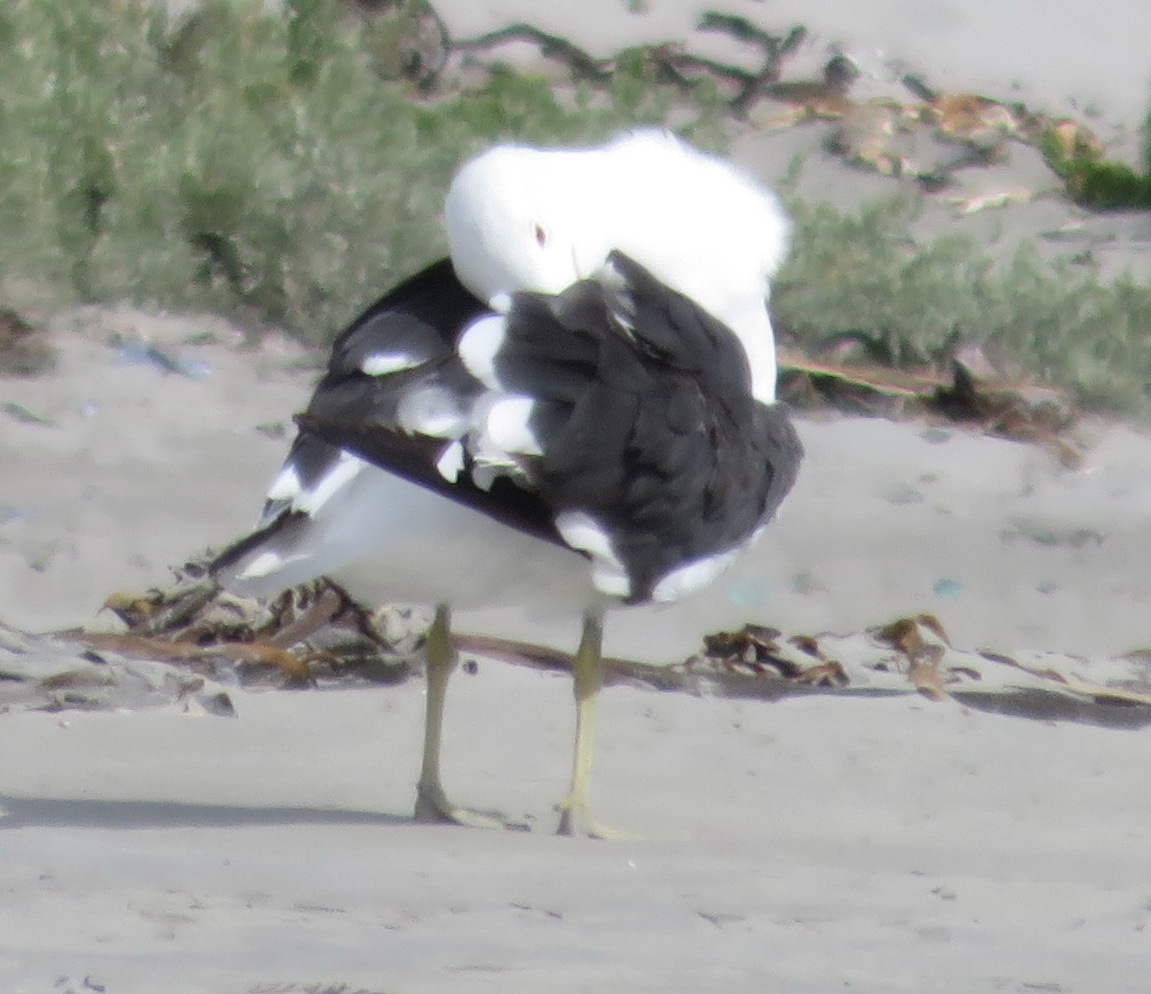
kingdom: Animalia
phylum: Chordata
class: Aves
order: Charadriiformes
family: Laridae
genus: Larus
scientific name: Larus dominicanus
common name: Kelp gull
